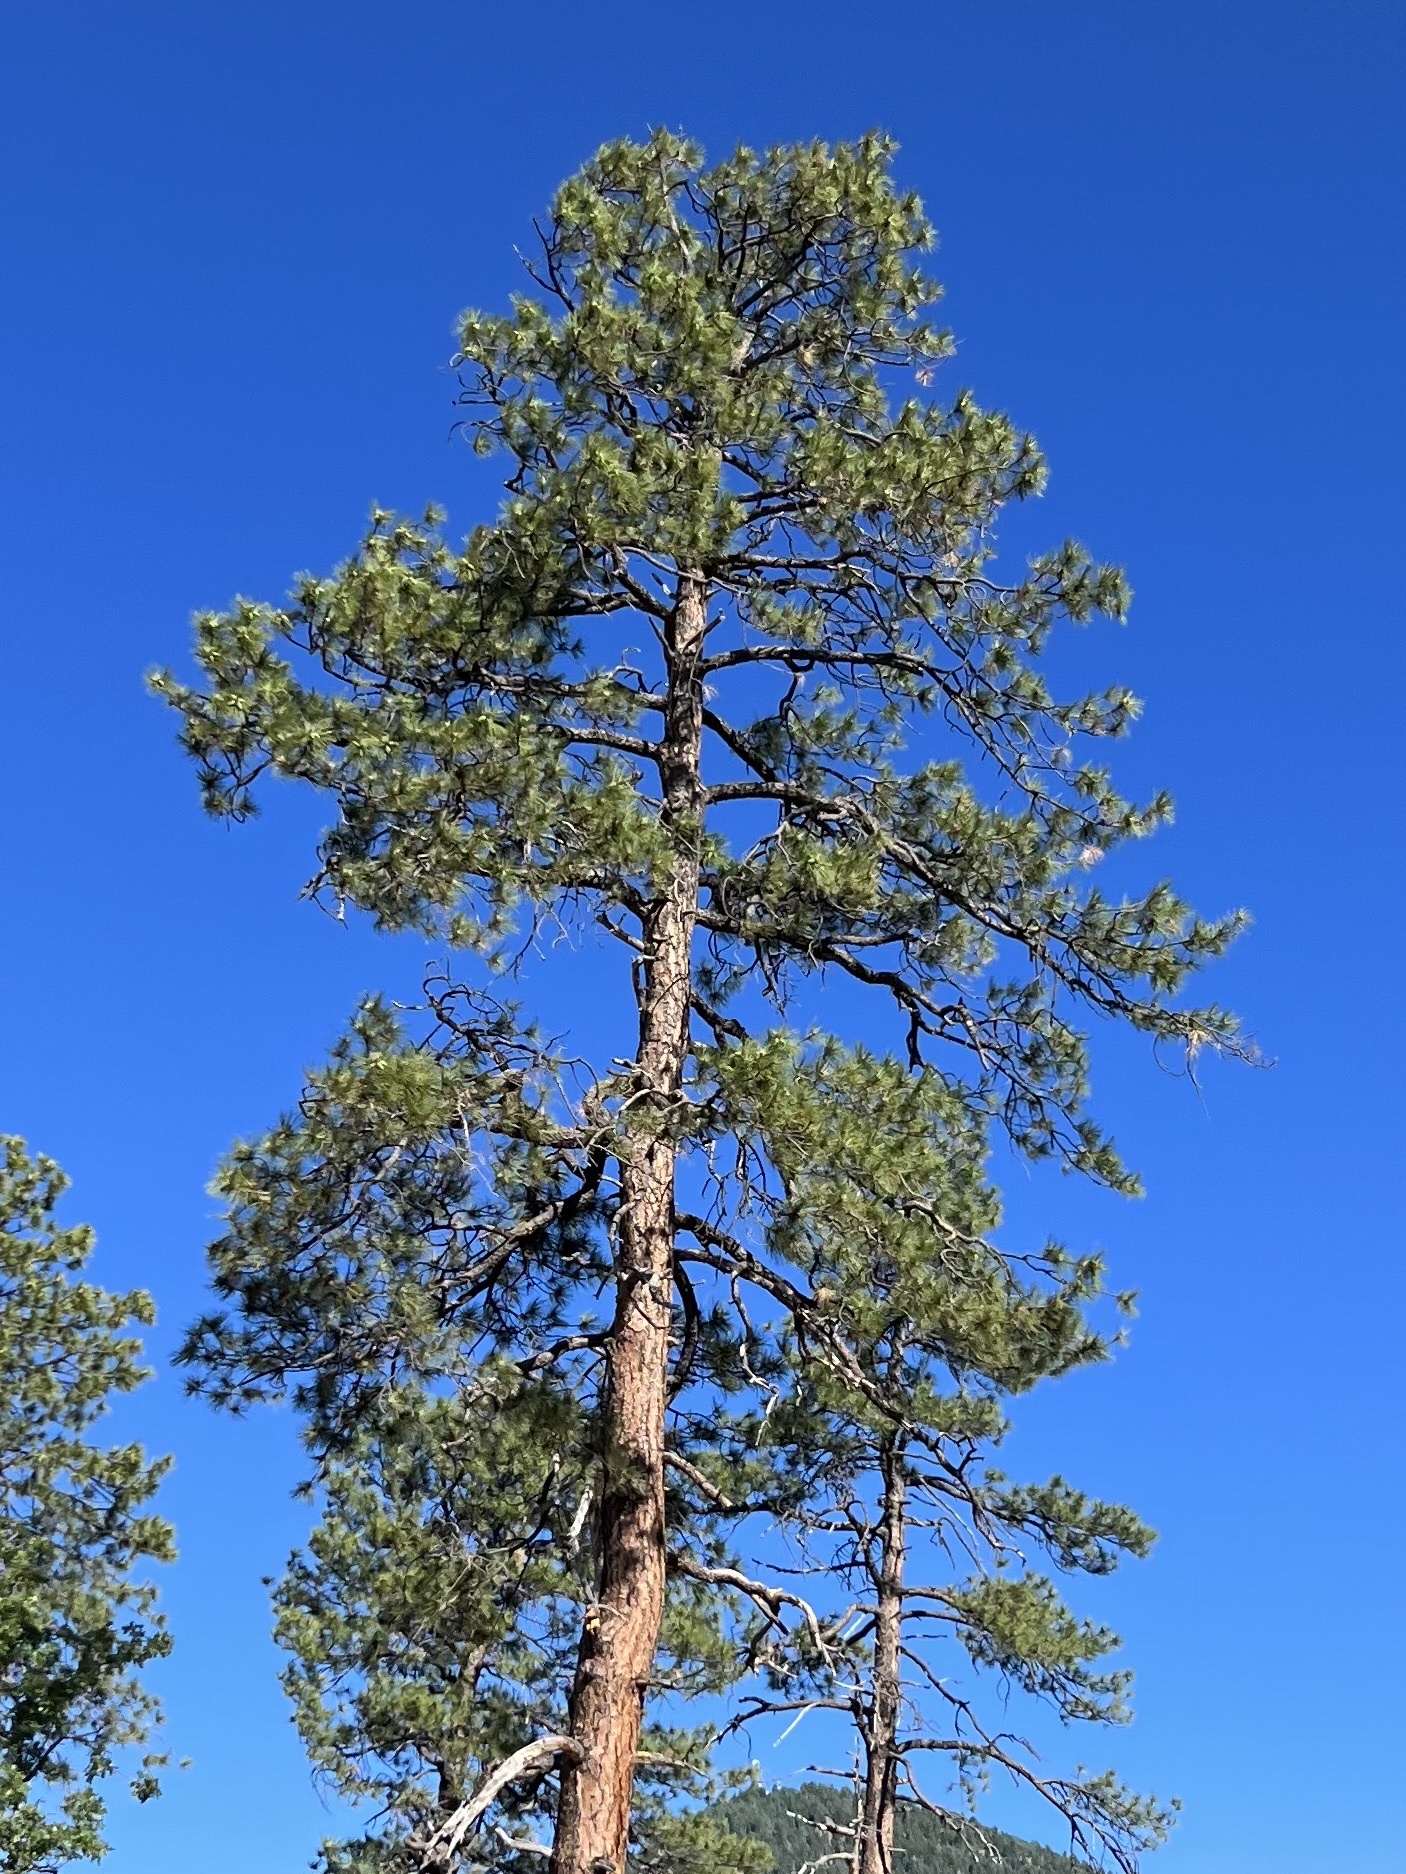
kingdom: Plantae
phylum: Tracheophyta
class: Pinopsida
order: Pinales
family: Pinaceae
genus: Pinus
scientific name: Pinus ponderosa
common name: Western yellow-pine
